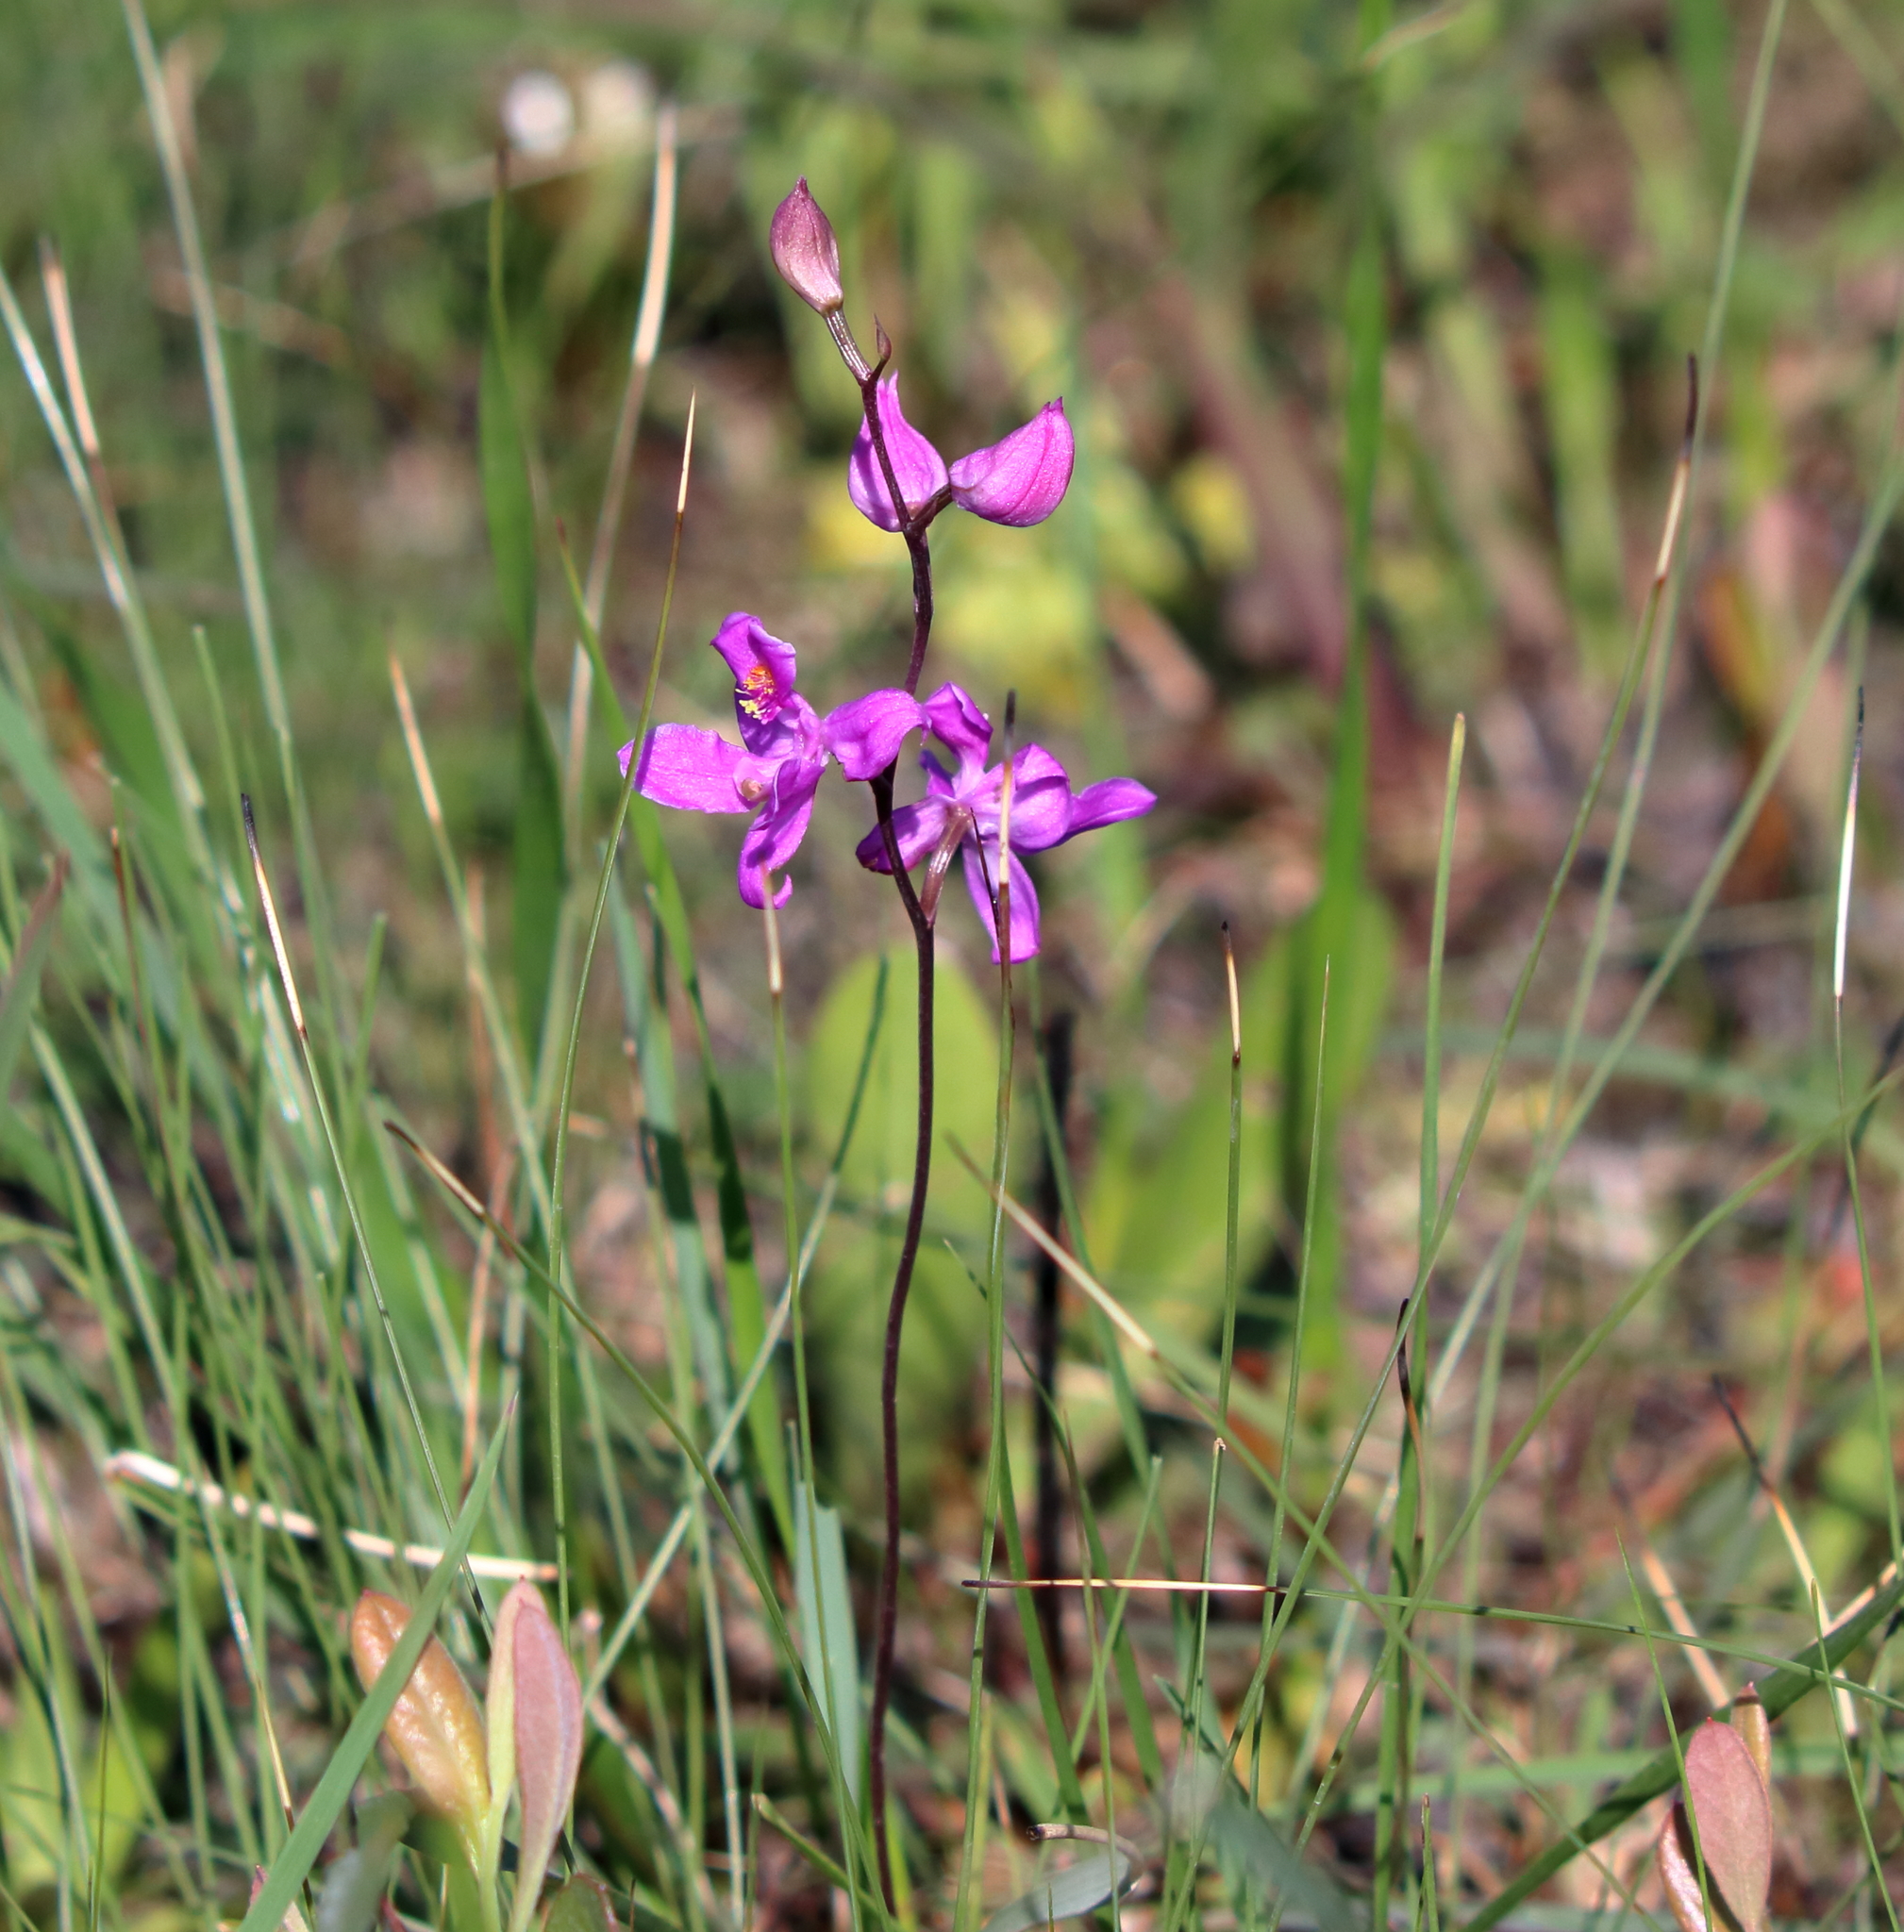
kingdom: Plantae
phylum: Tracheophyta
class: Liliopsida
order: Asparagales
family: Orchidaceae
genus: Calopogon
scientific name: Calopogon multiflorus
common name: Many-flowered grass-pink orchid
